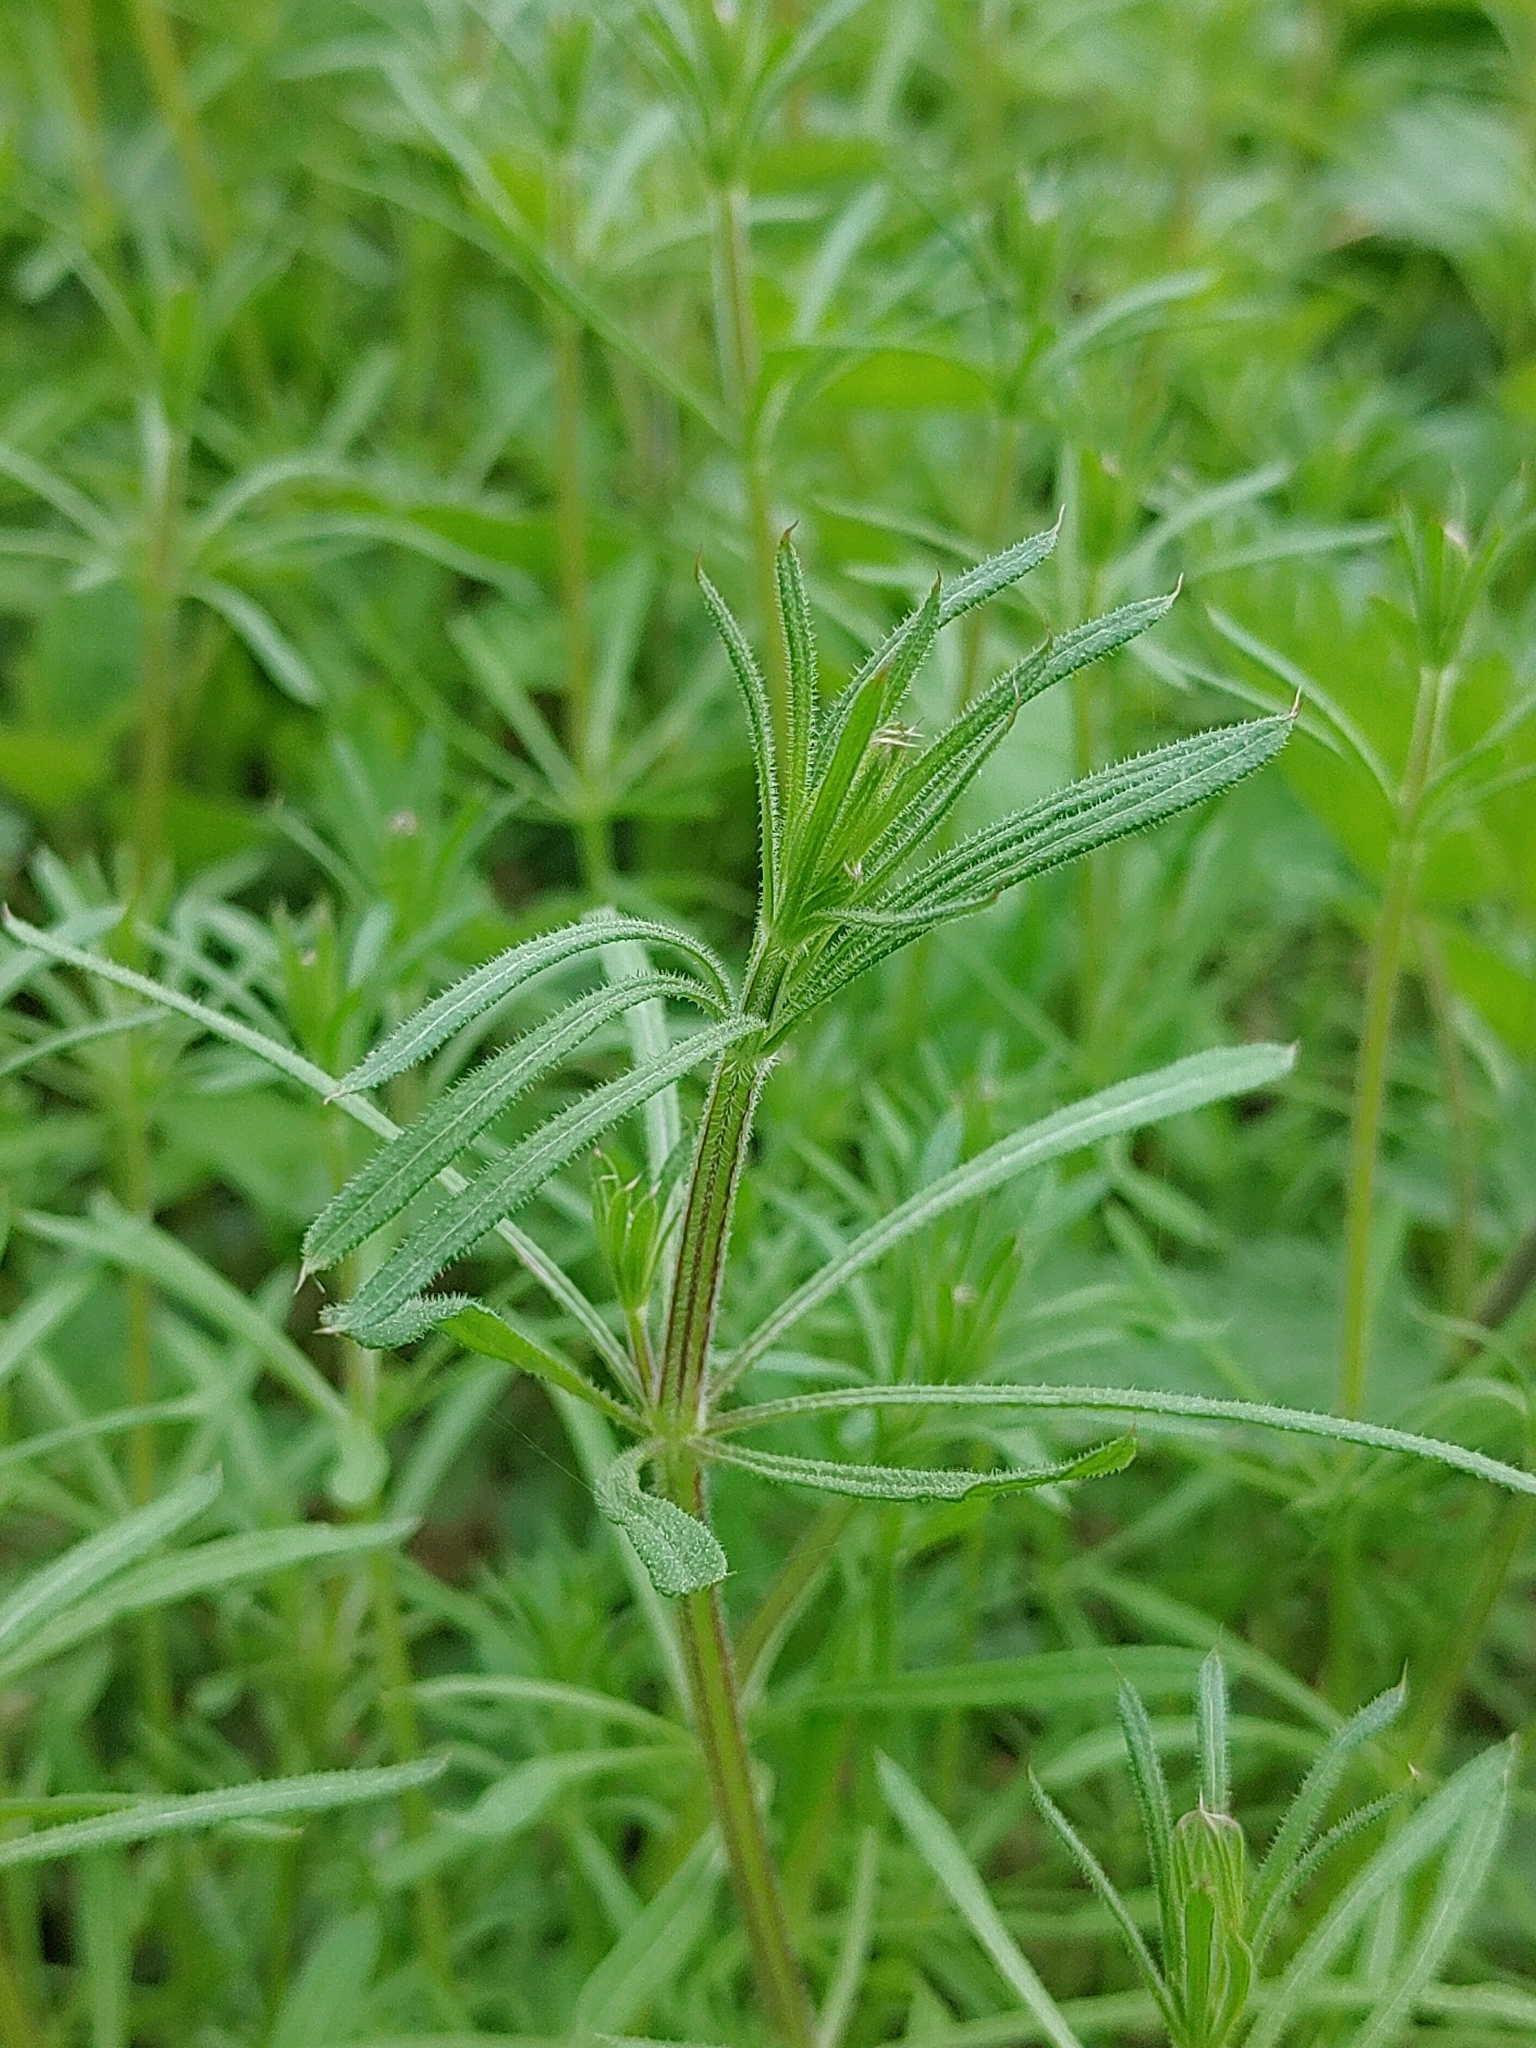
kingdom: Plantae
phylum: Tracheophyta
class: Magnoliopsida
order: Gentianales
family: Rubiaceae
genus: Galium
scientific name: Galium aparine
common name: Cleavers
